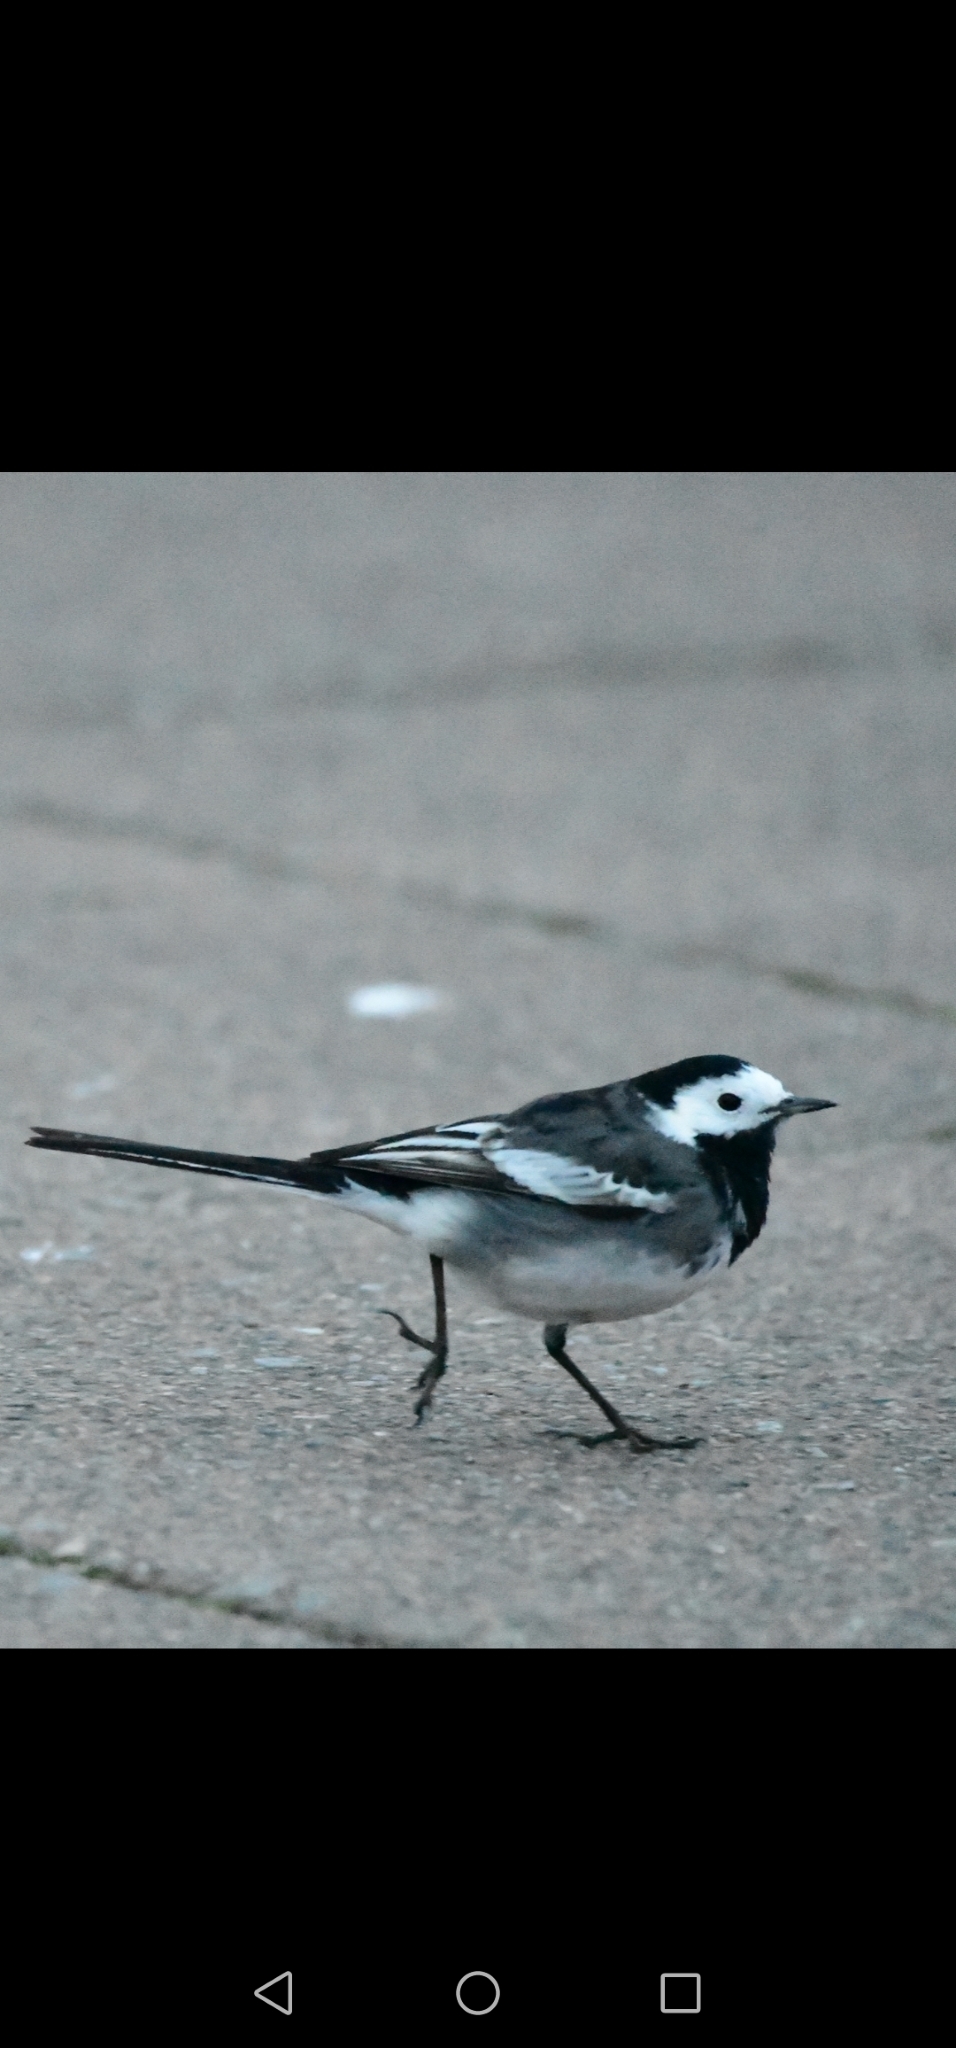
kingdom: Animalia
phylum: Chordata
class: Aves
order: Passeriformes
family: Motacillidae
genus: Motacilla
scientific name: Motacilla alba
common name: White wagtail
